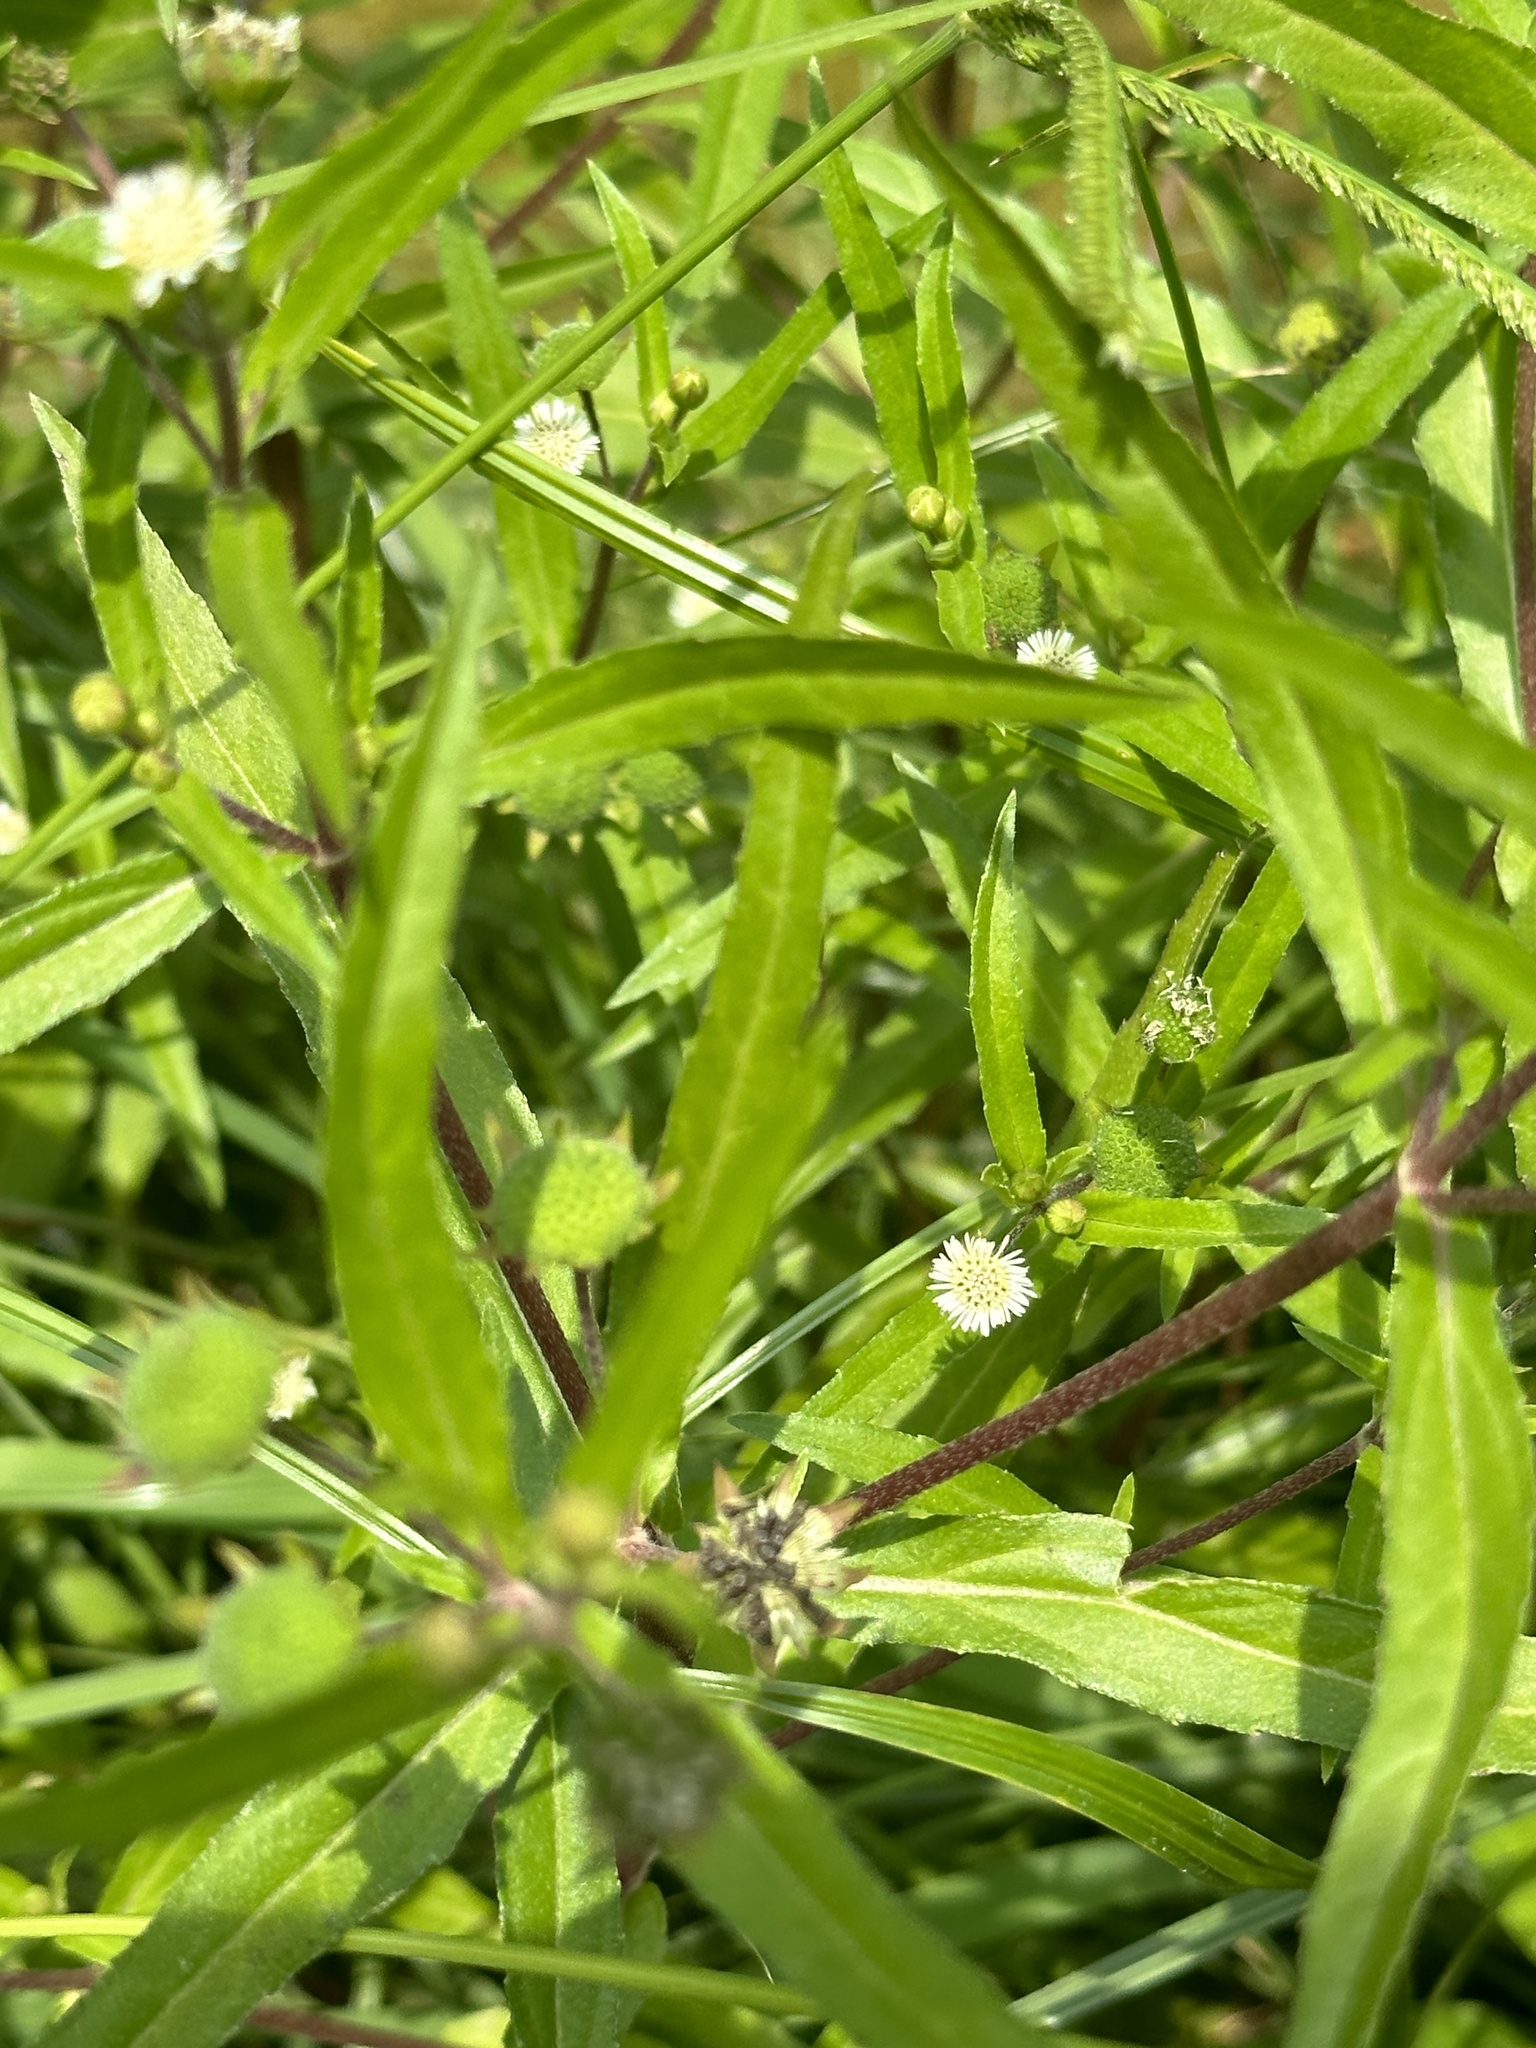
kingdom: Plantae
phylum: Tracheophyta
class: Magnoliopsida
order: Asterales
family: Asteraceae
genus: Eclipta
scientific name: Eclipta prostrata
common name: False daisy
